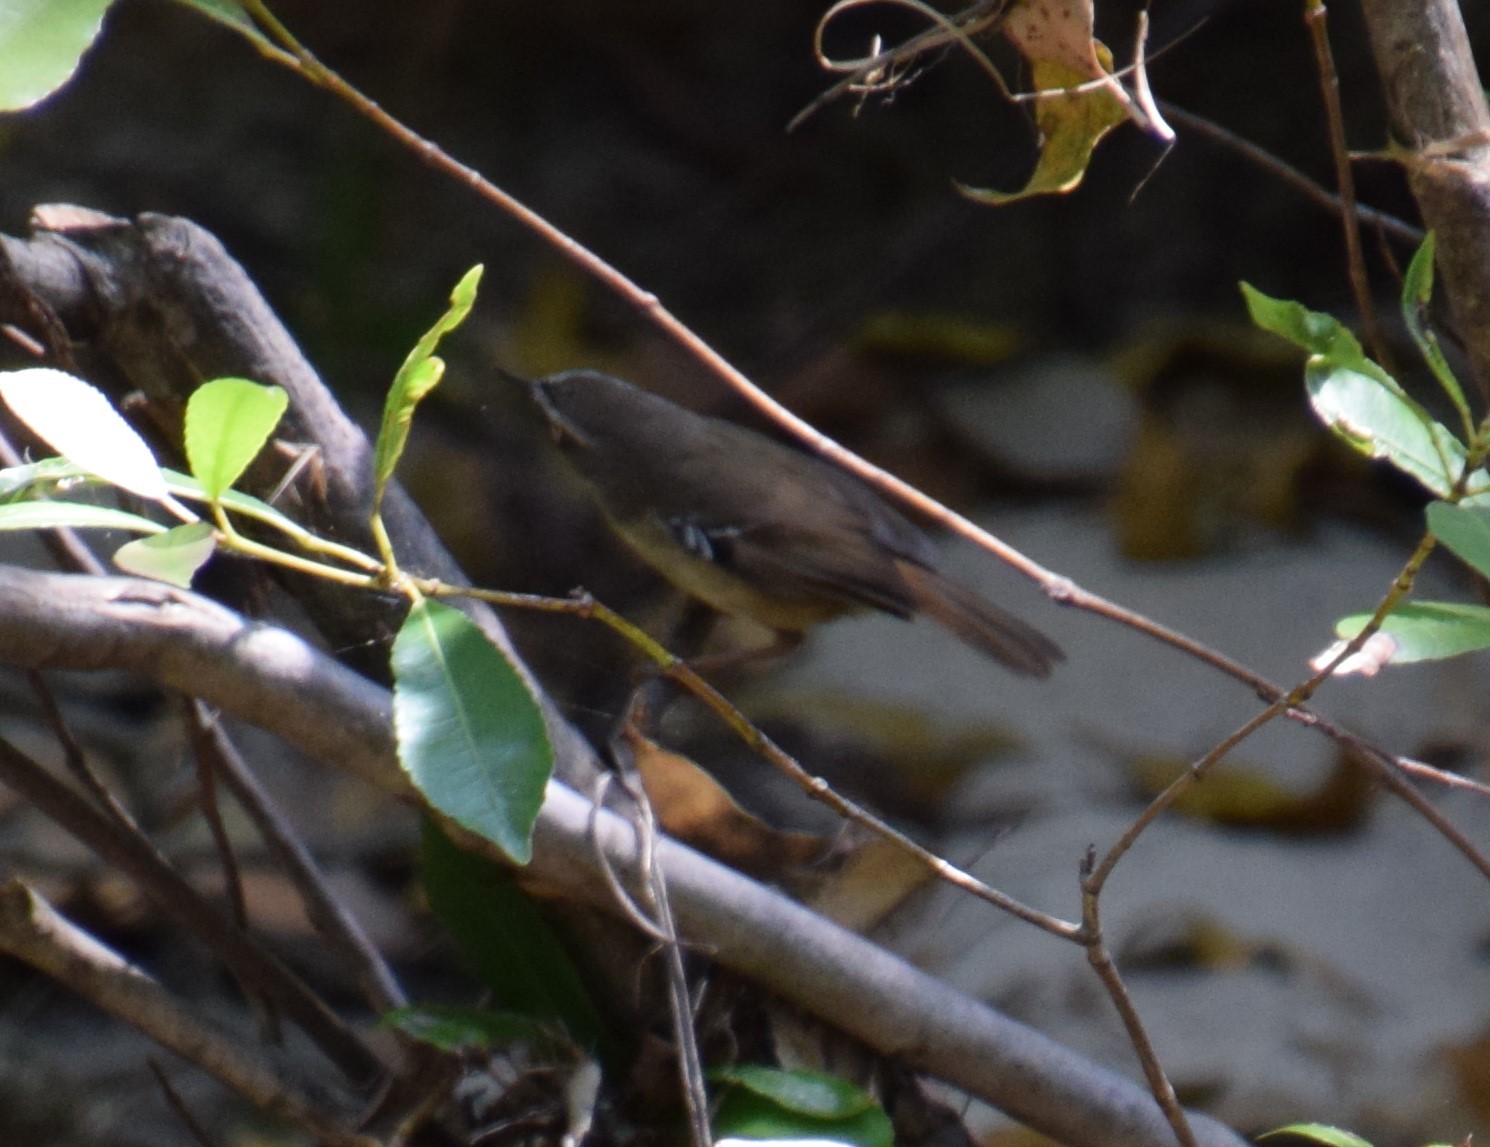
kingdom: Animalia
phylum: Chordata
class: Aves
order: Passeriformes
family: Acanthizidae
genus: Sericornis
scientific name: Sericornis frontalis
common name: White-browed scrubwren
